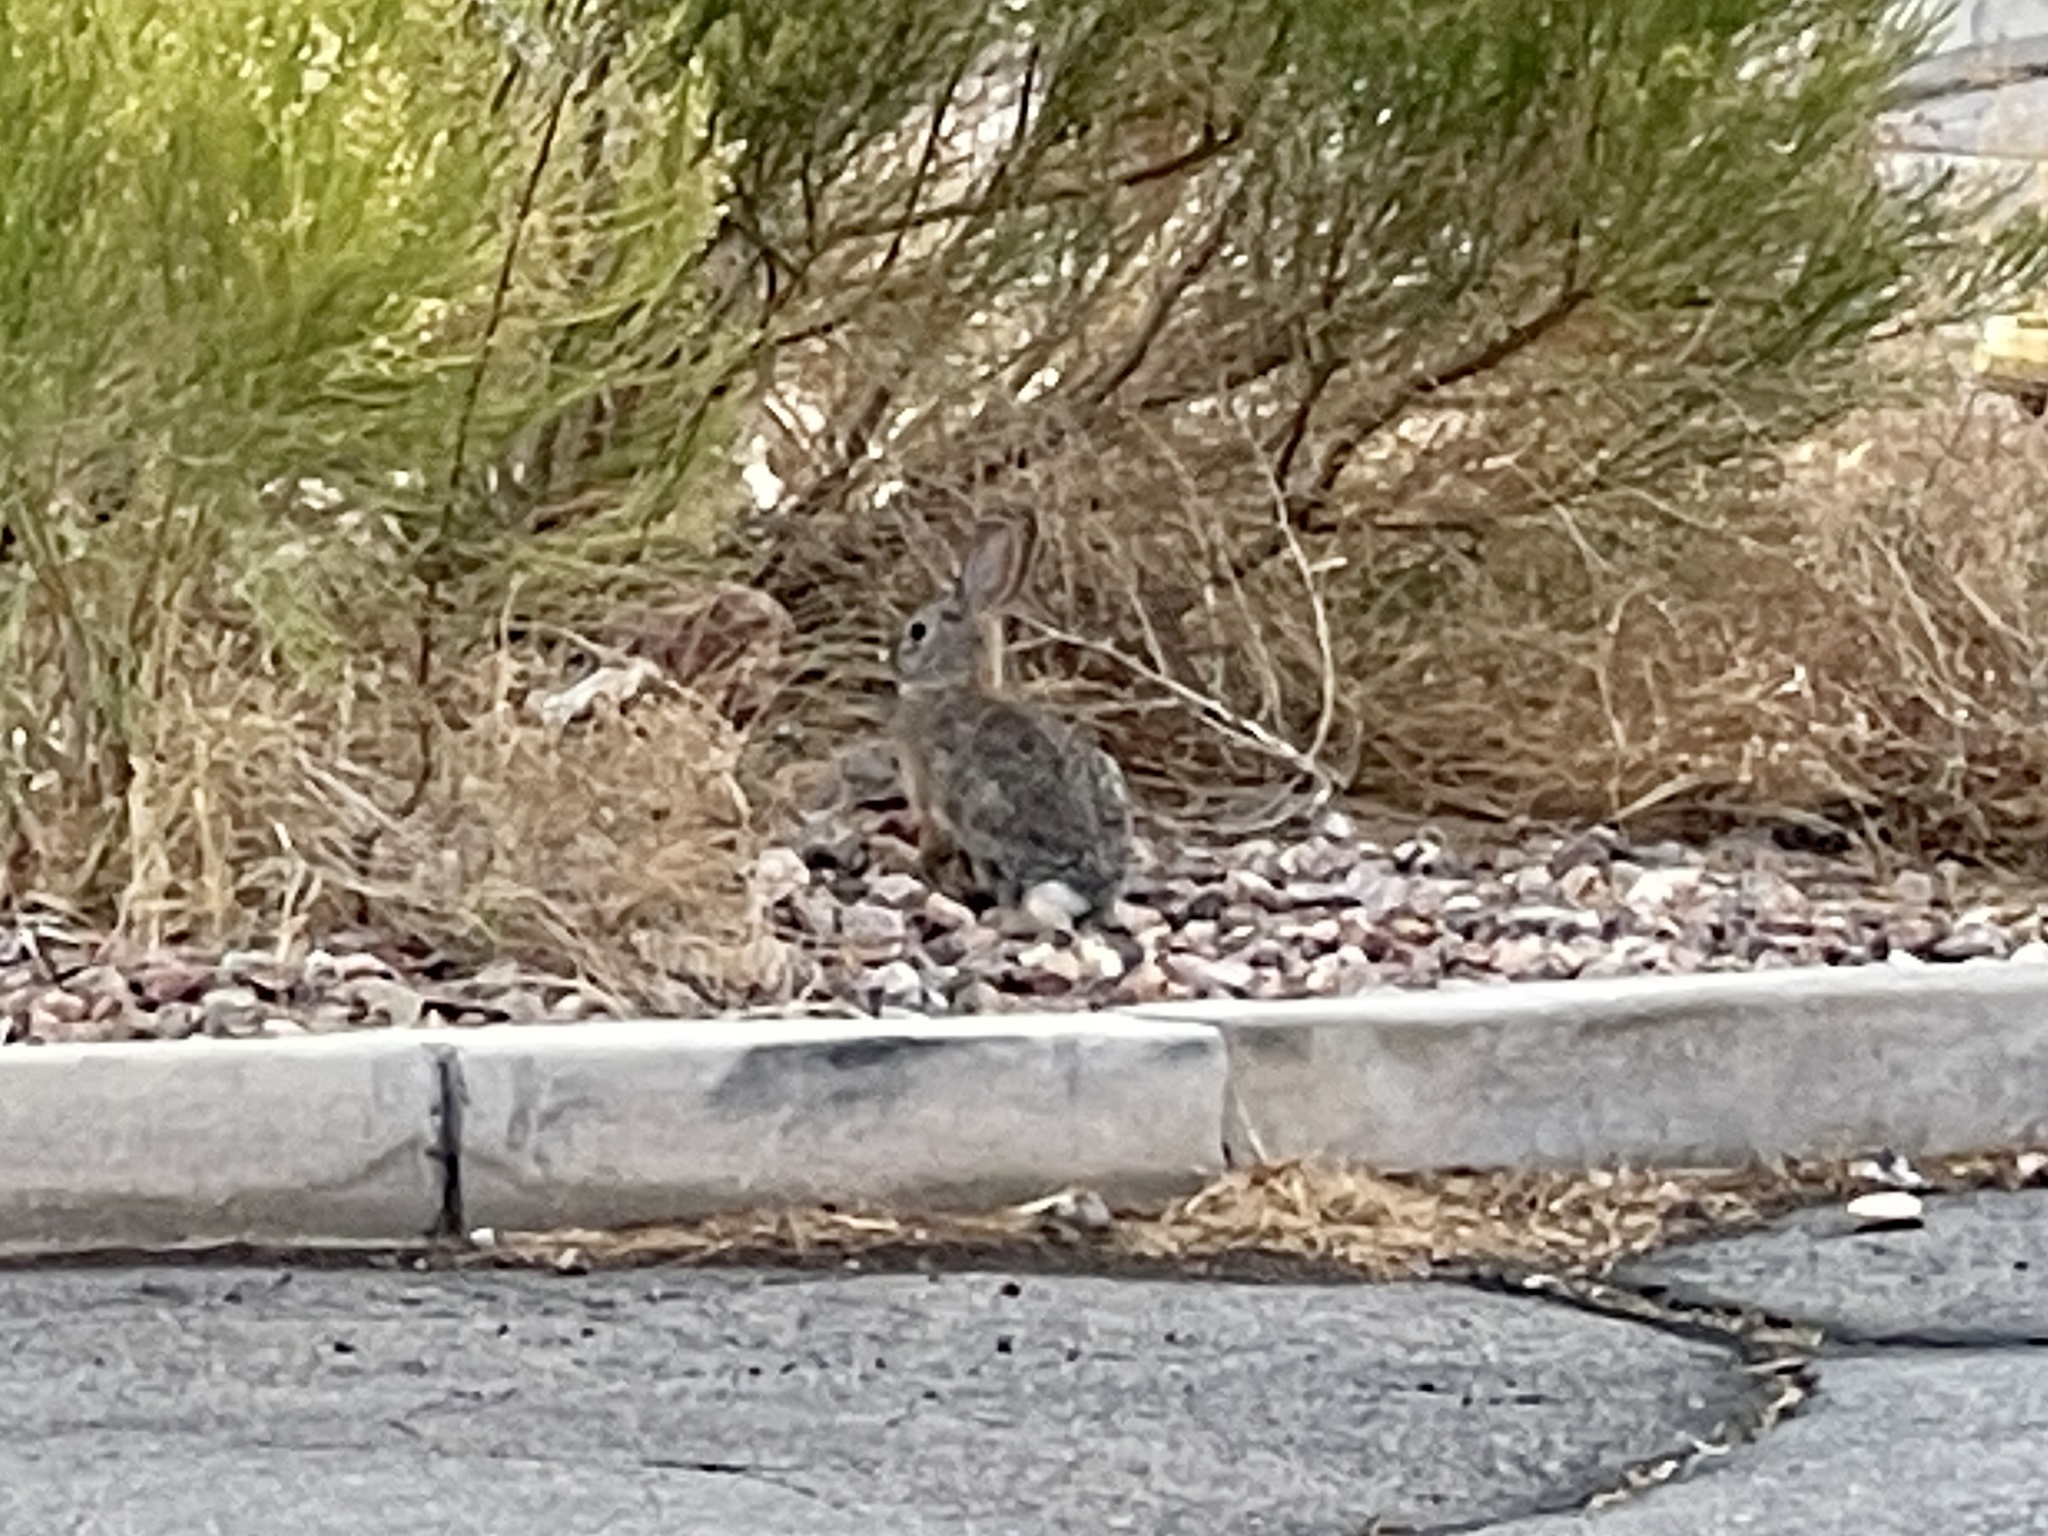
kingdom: Animalia
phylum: Chordata
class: Mammalia
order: Lagomorpha
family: Leporidae
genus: Sylvilagus
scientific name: Sylvilagus audubonii
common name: Desert cottontail
